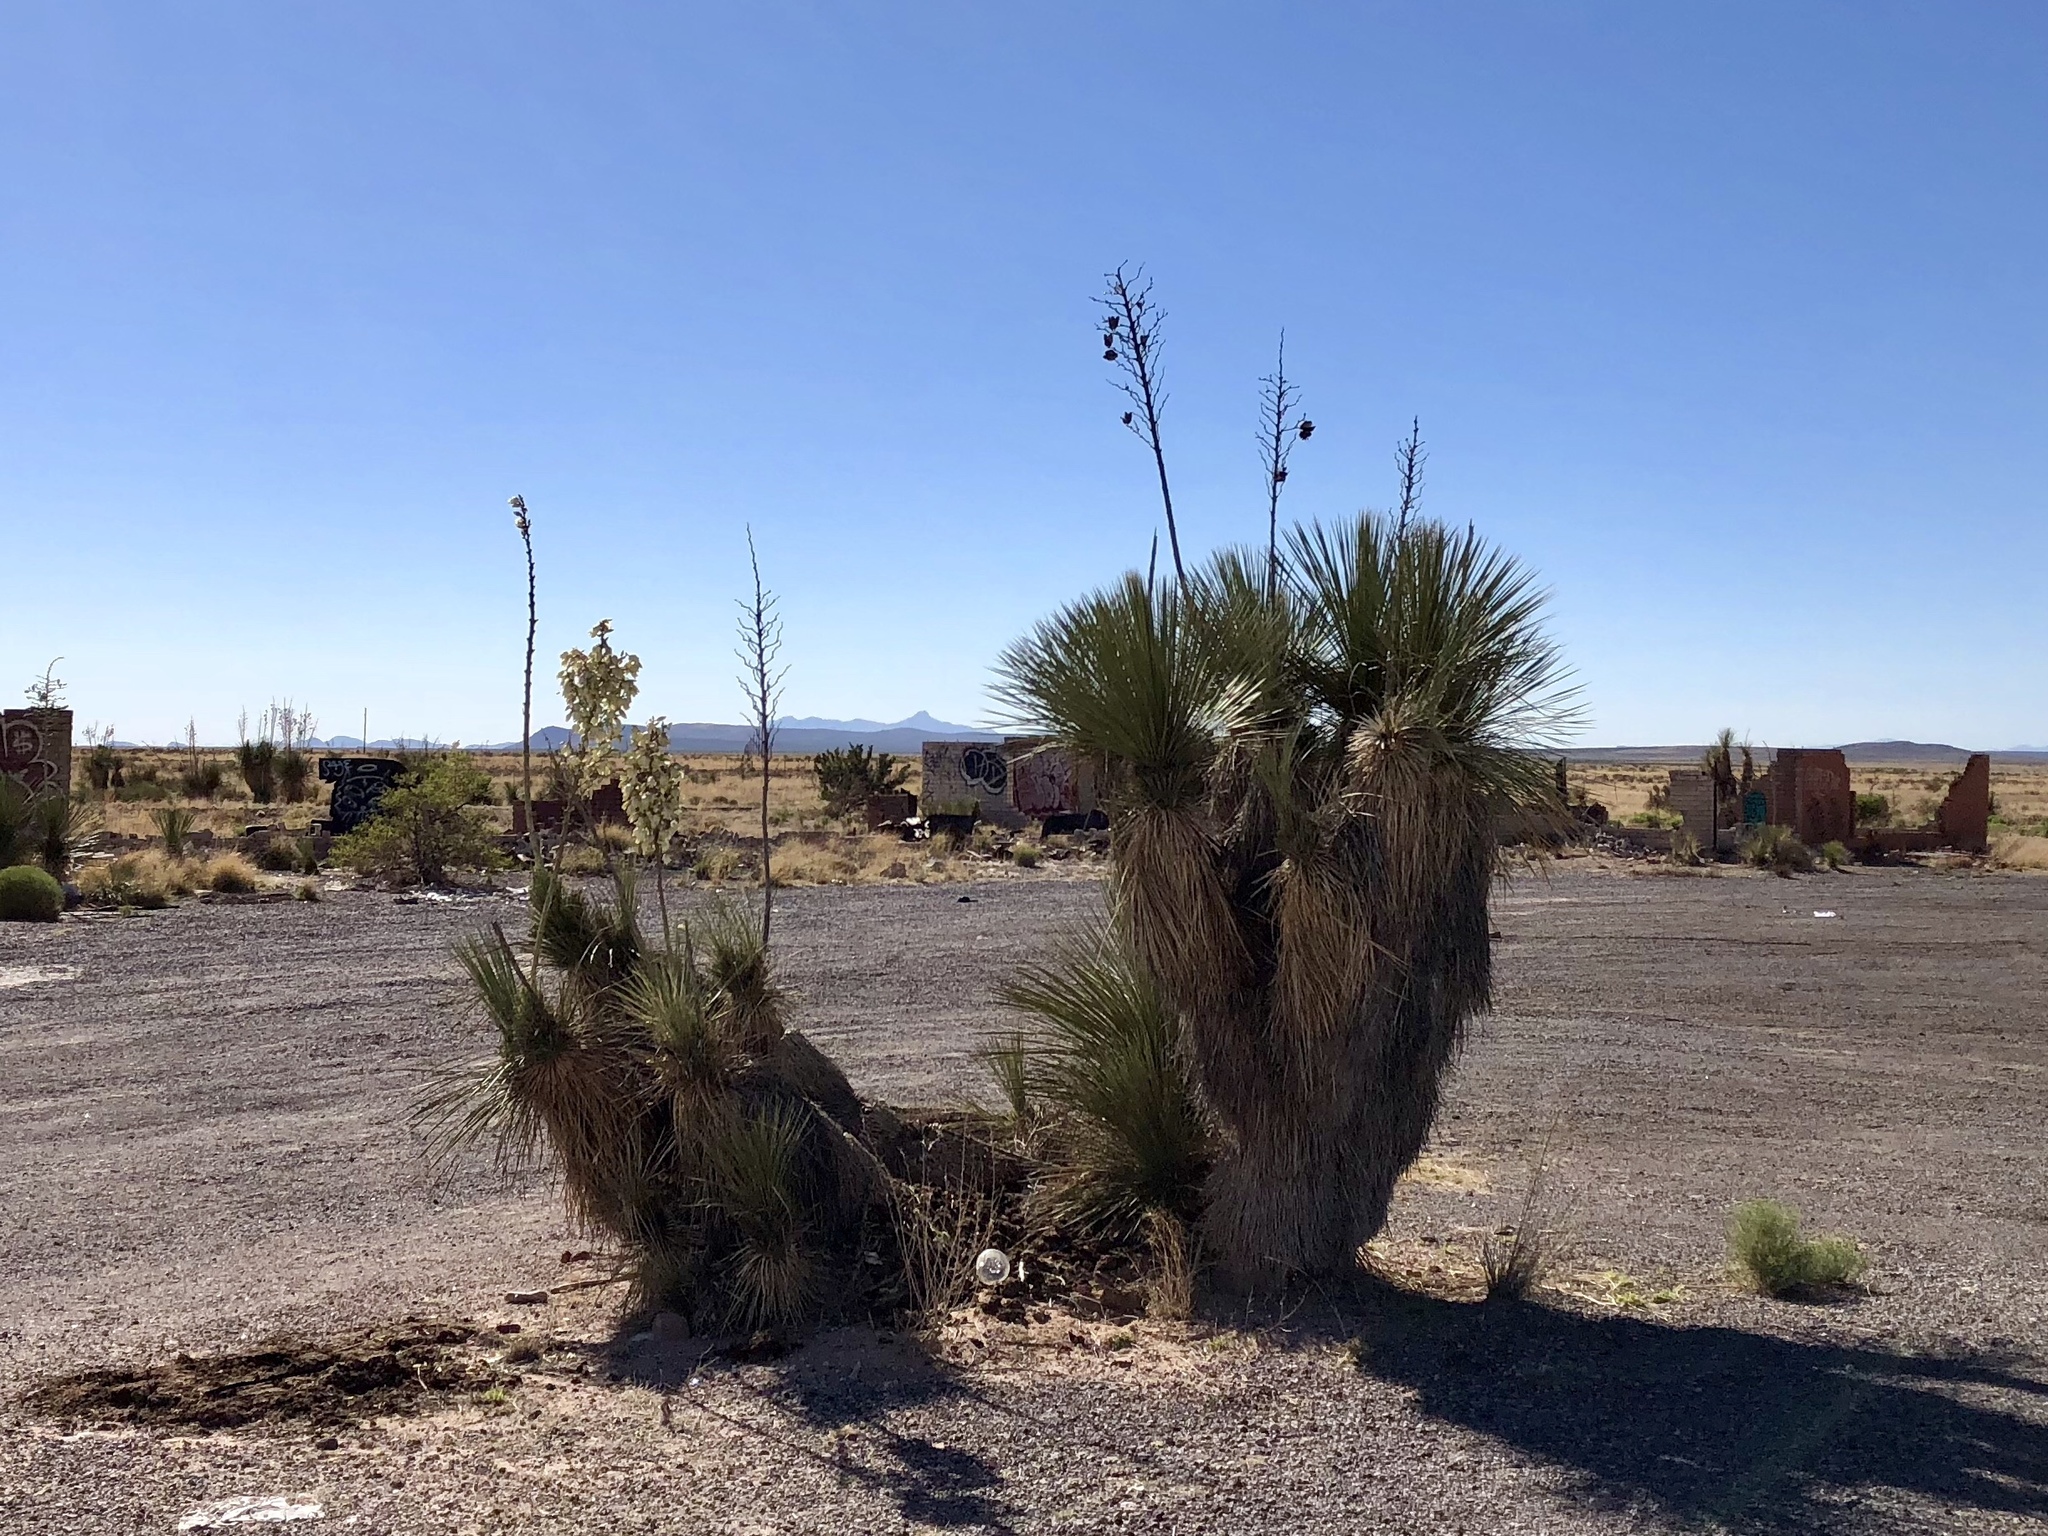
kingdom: Plantae
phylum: Tracheophyta
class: Liliopsida
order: Asparagales
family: Asparagaceae
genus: Yucca
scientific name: Yucca elata
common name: Palmella
